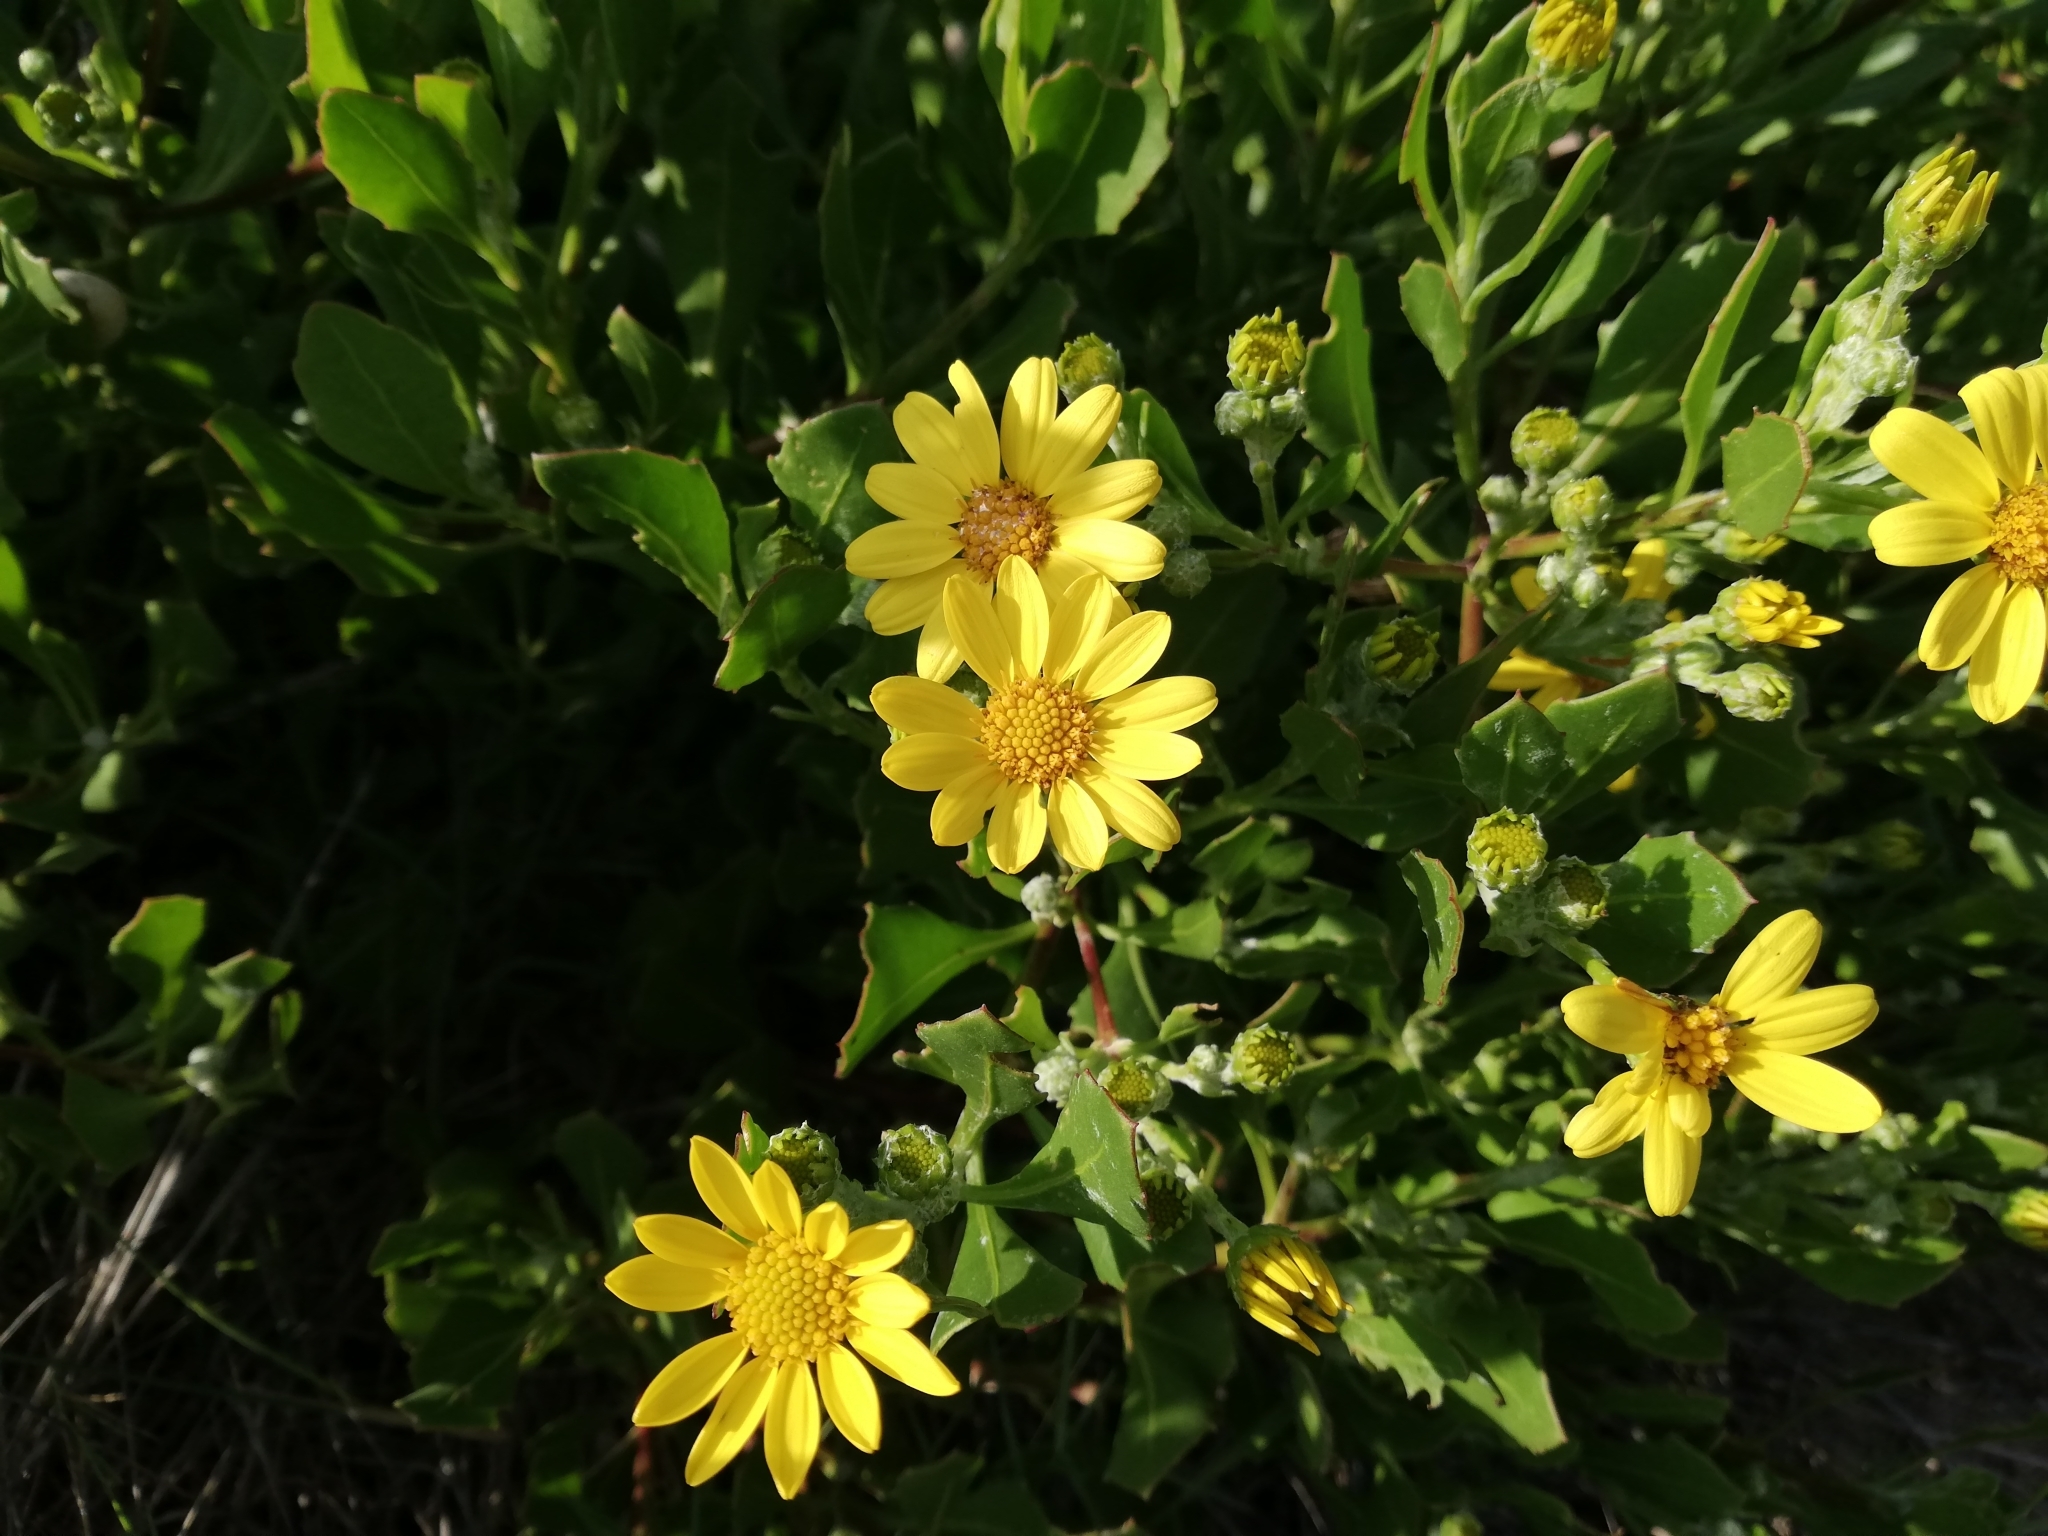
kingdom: Plantae
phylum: Tracheophyta
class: Magnoliopsida
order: Asterales
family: Asteraceae
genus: Osteospermum
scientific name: Osteospermum moniliferum
